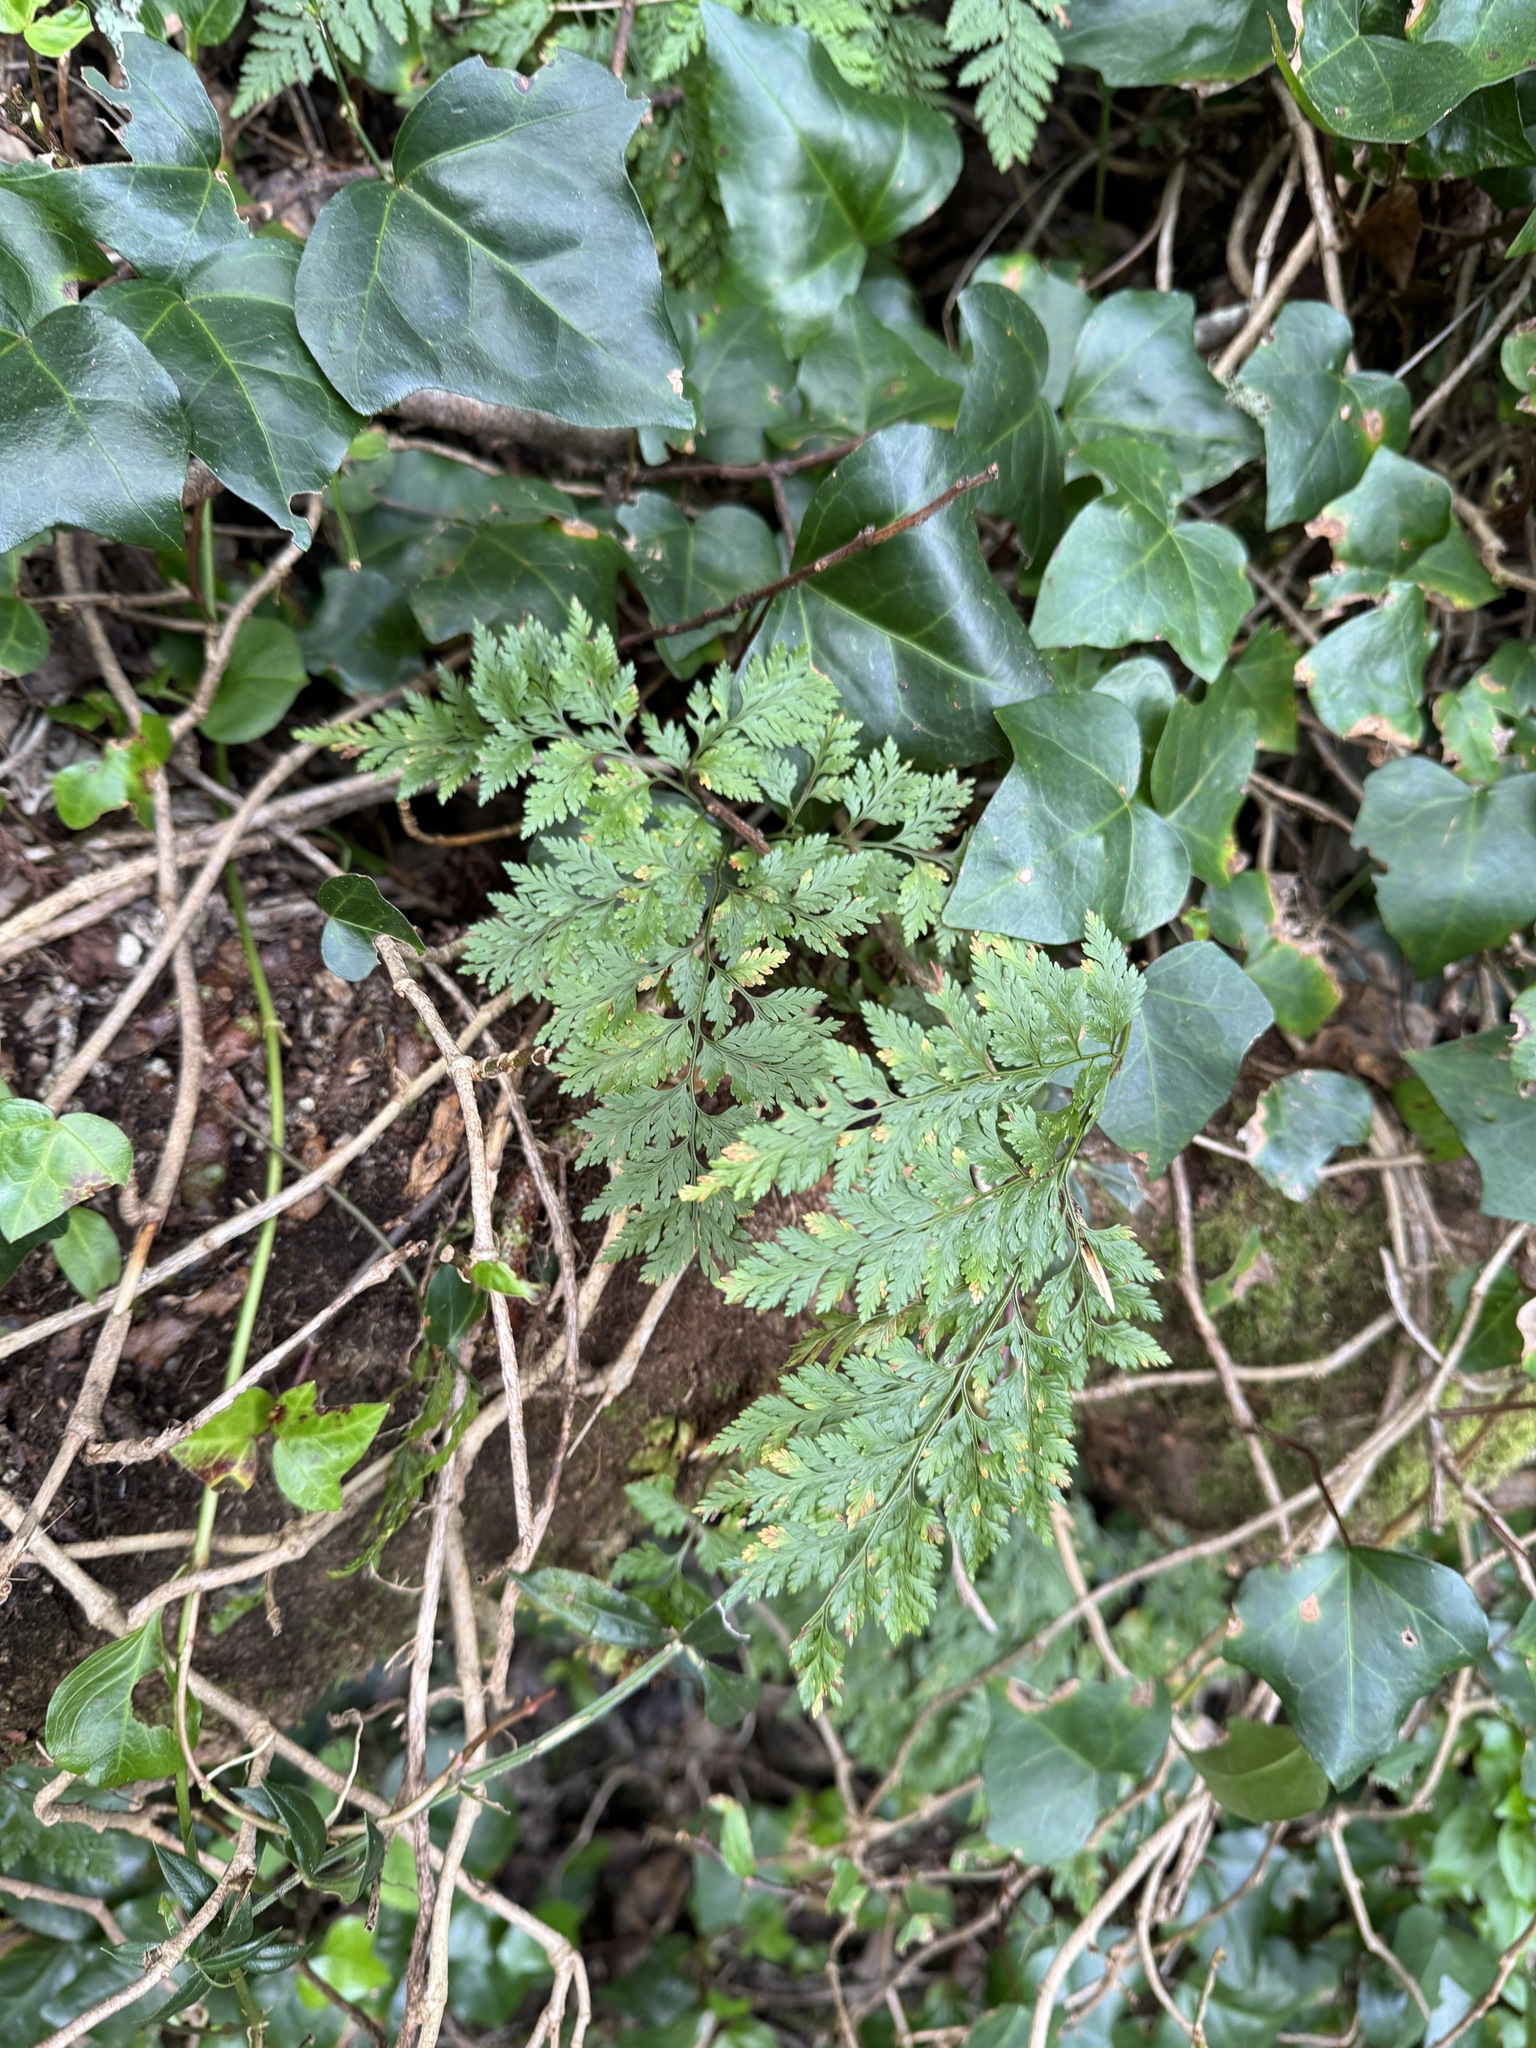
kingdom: Plantae
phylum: Tracheophyta
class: Polypodiopsida
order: Polypodiales
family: Davalliaceae
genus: Davallia
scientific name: Davallia canariensis
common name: Hare's-foot fern
